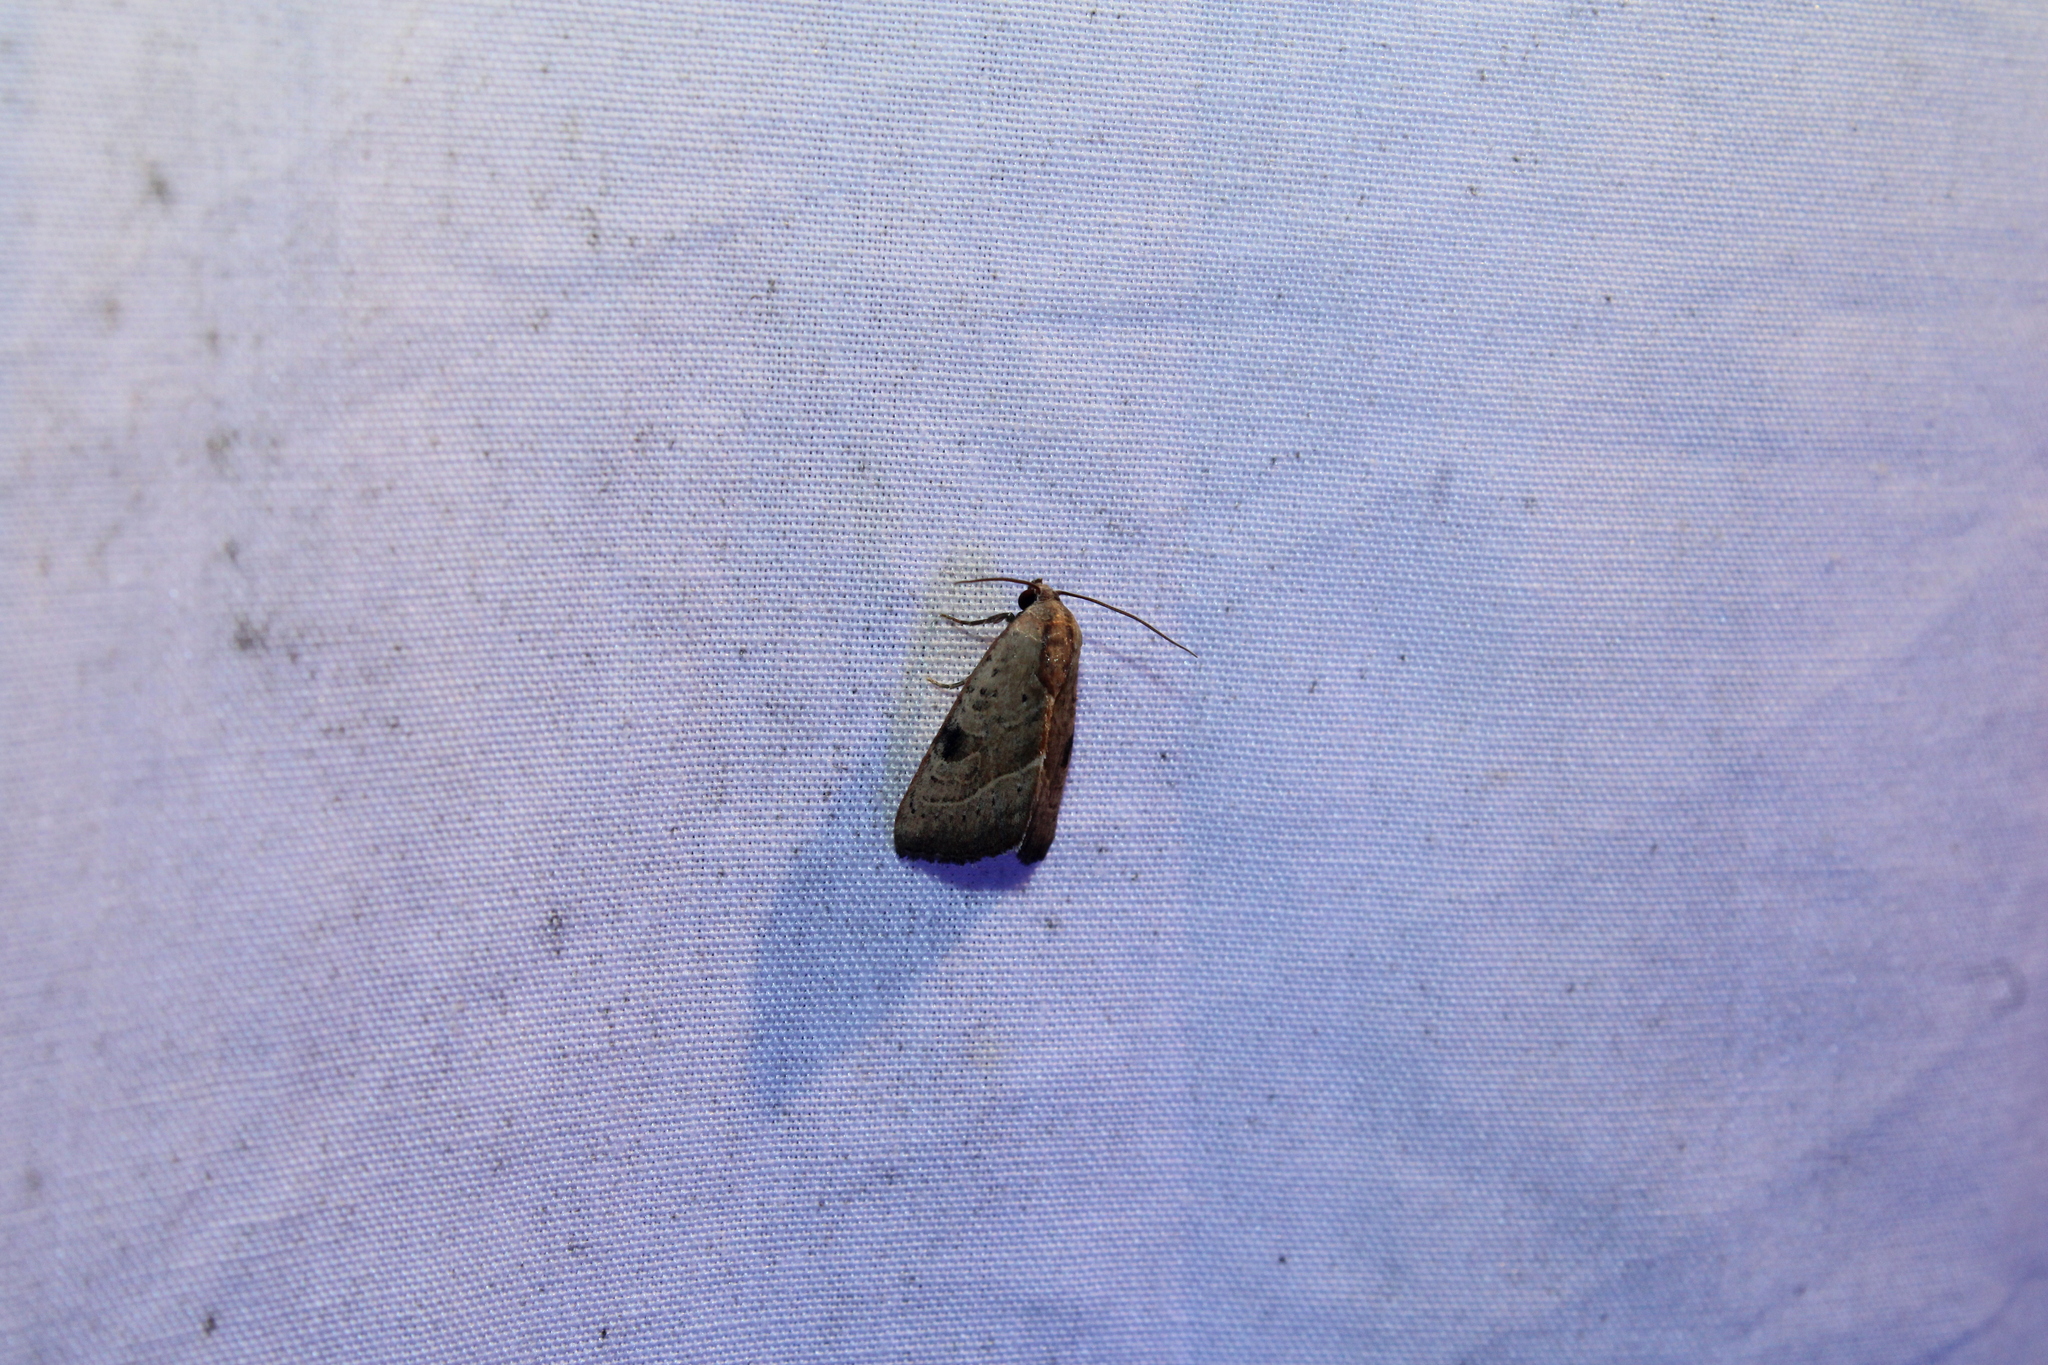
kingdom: Animalia
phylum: Arthropoda
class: Insecta
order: Lepidoptera
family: Noctuidae
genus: Galgula
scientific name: Galgula partita
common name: Wedgeling
